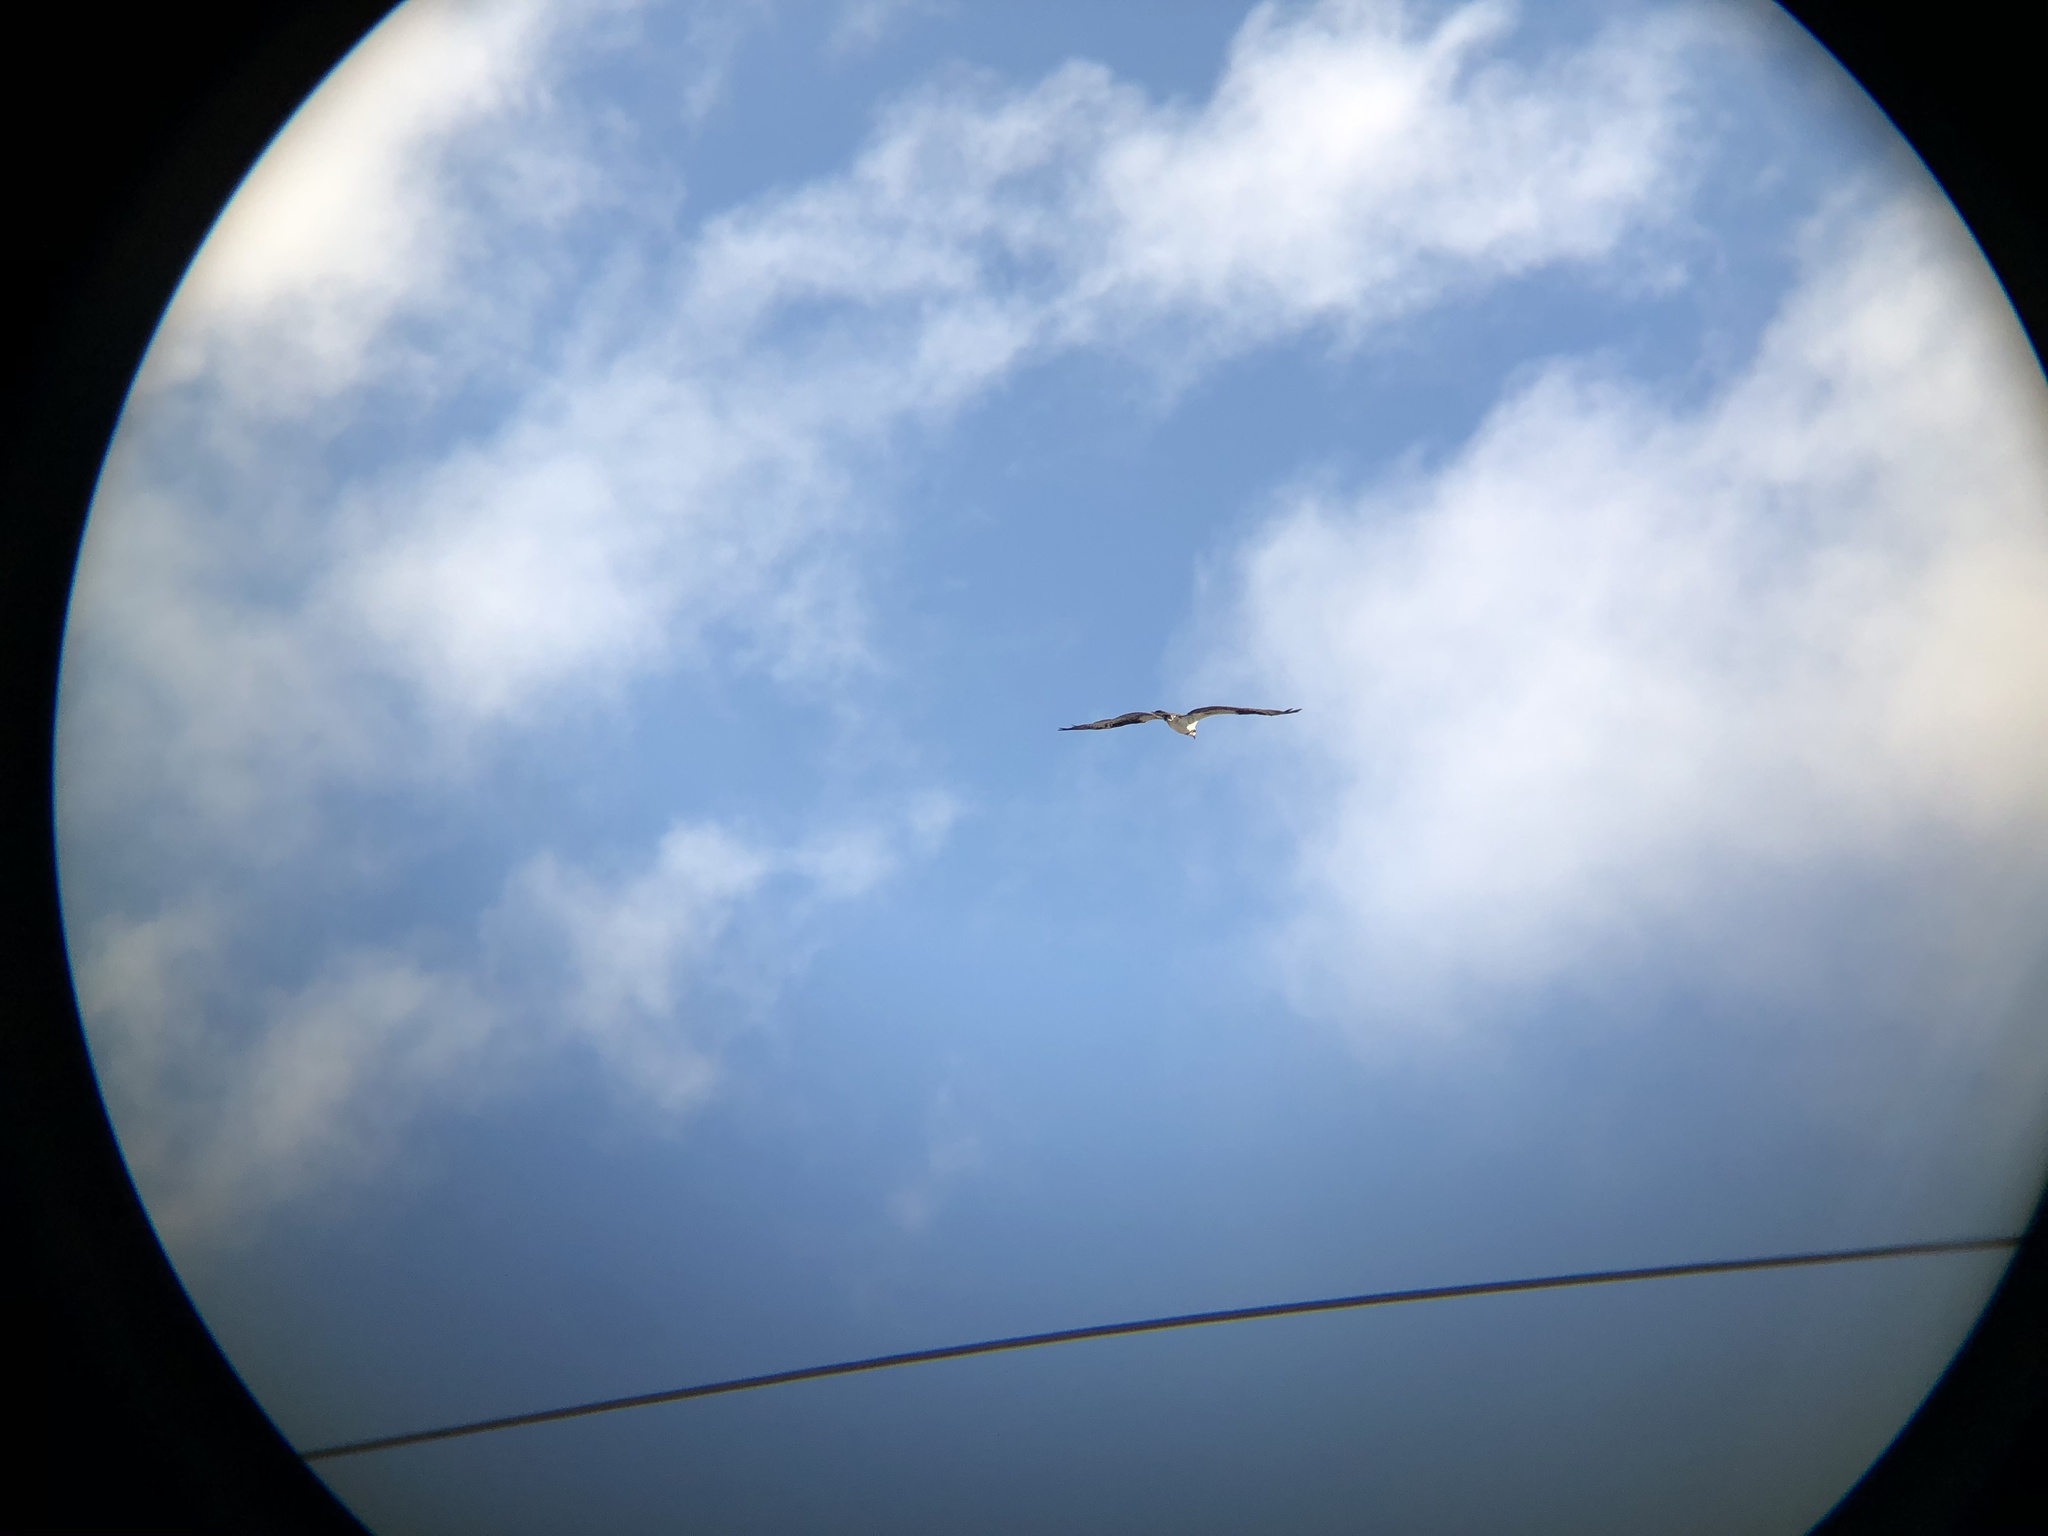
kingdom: Animalia
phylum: Chordata
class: Aves
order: Accipitriformes
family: Pandionidae
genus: Pandion
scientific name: Pandion haliaetus
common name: Osprey
